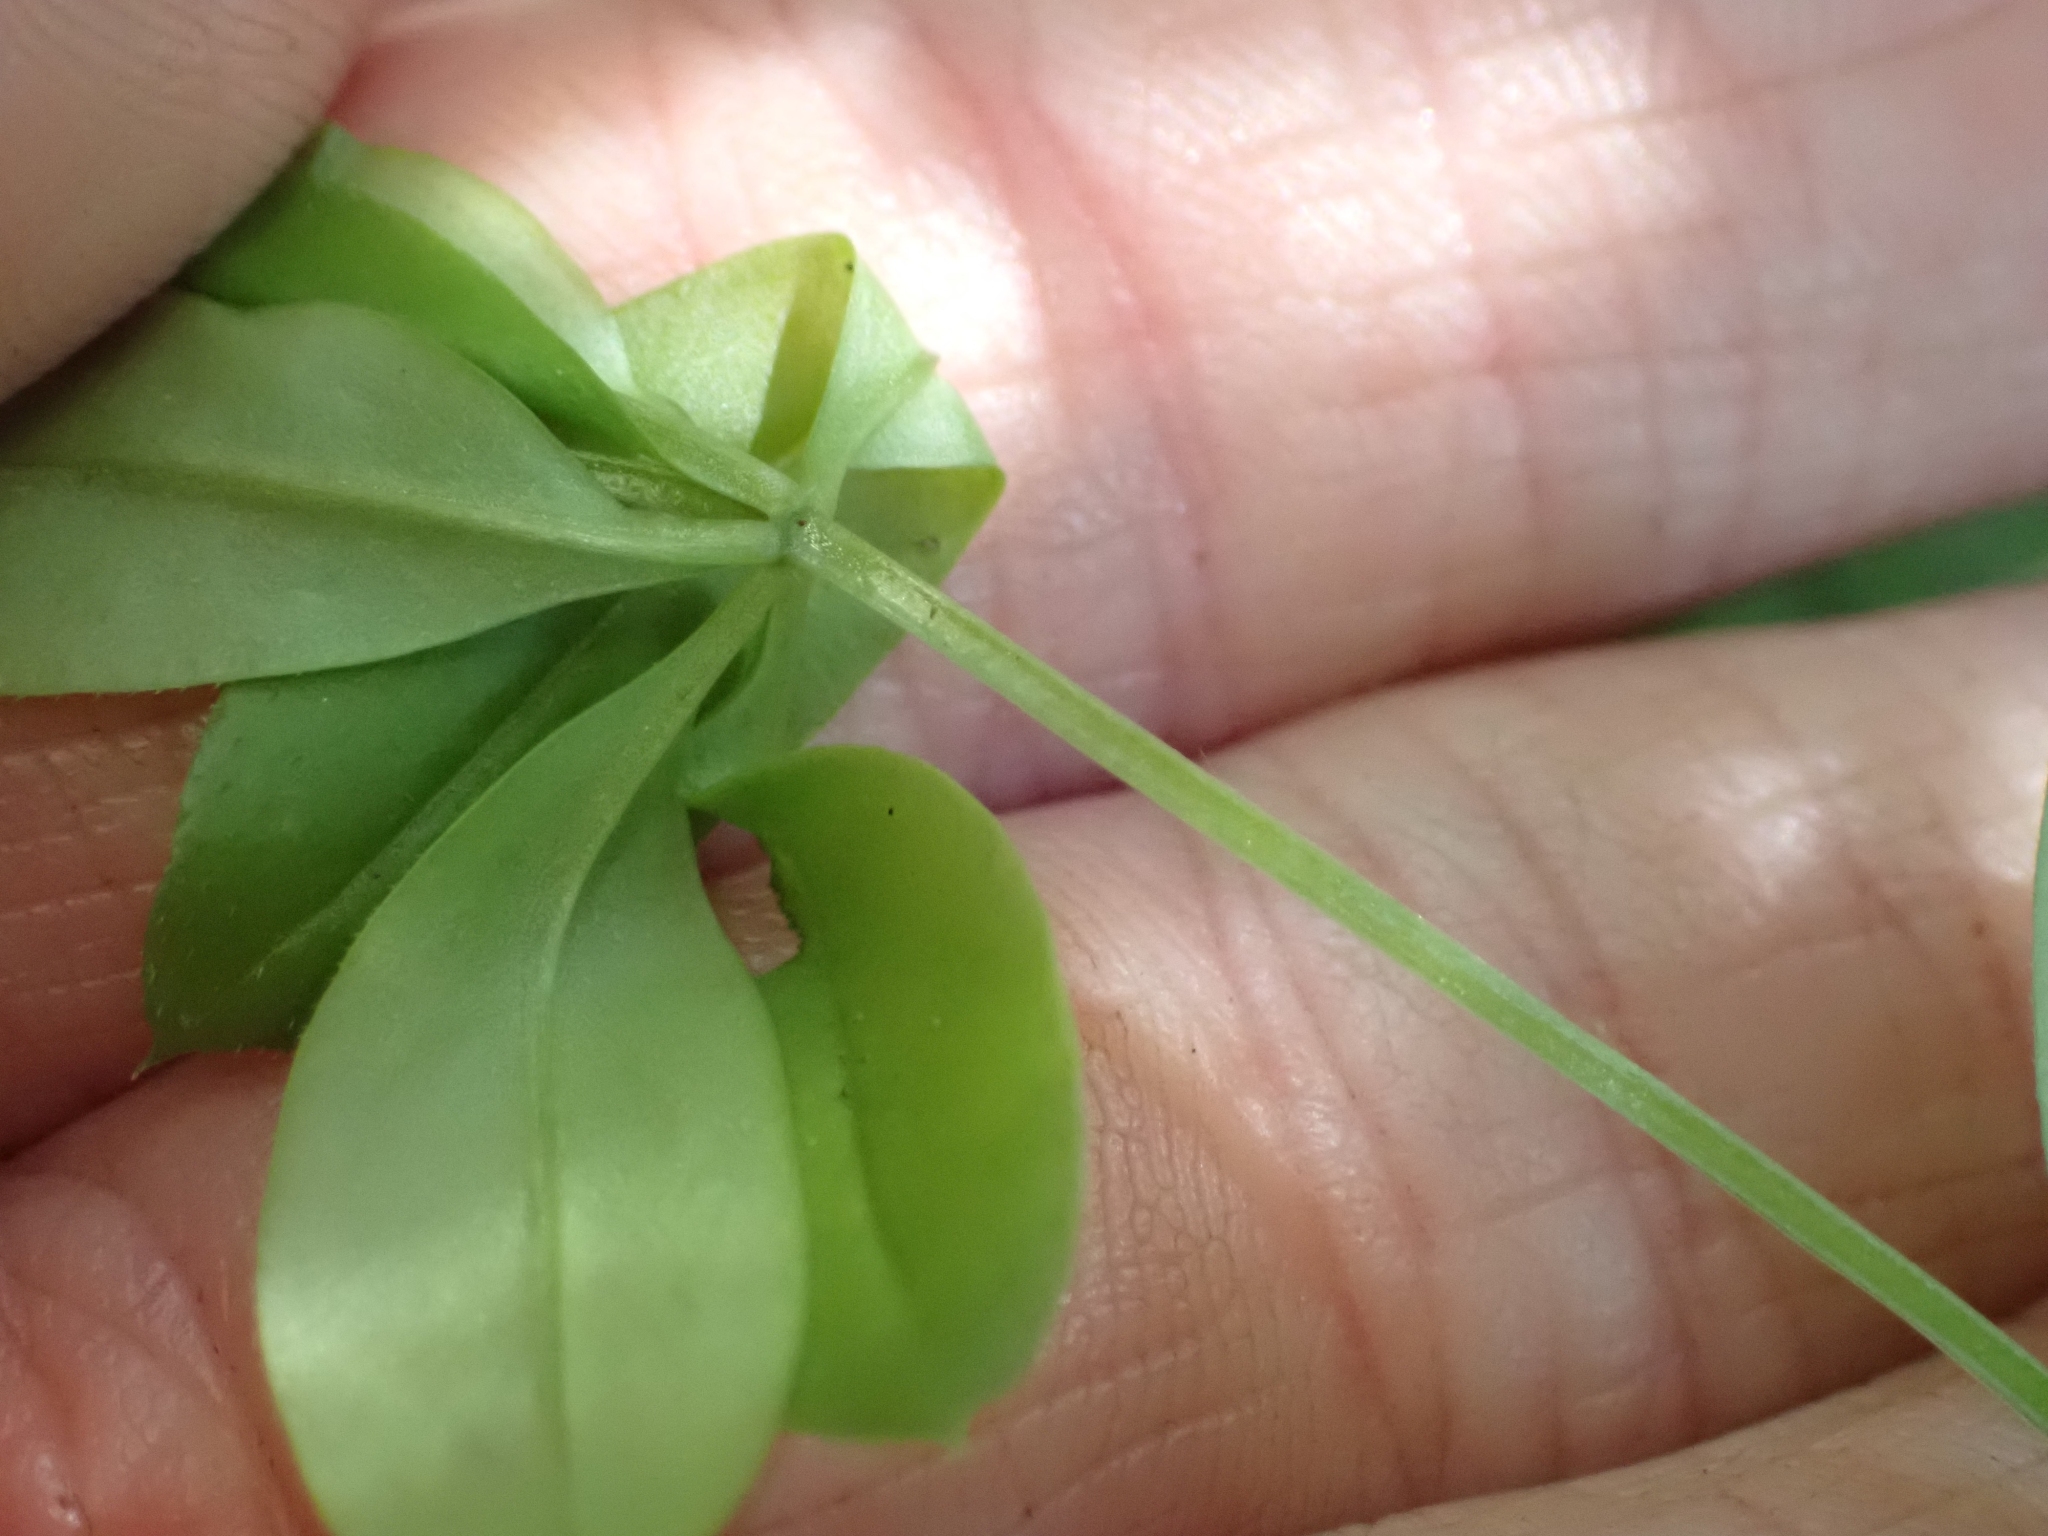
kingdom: Plantae
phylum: Tracheophyta
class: Magnoliopsida
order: Gentianales
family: Rubiaceae
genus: Galium
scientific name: Galium triflorum
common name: Fragrant bedstraw
